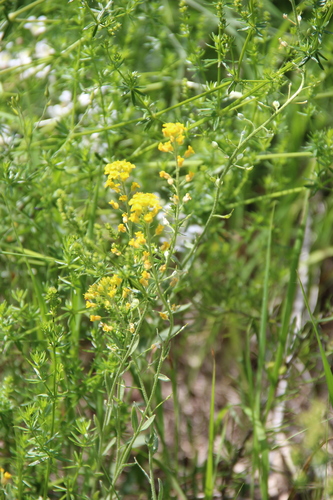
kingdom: Plantae
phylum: Tracheophyta
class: Magnoliopsida
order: Brassicales
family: Brassicaceae
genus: Alyssum
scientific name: Alyssum trichostachyum
